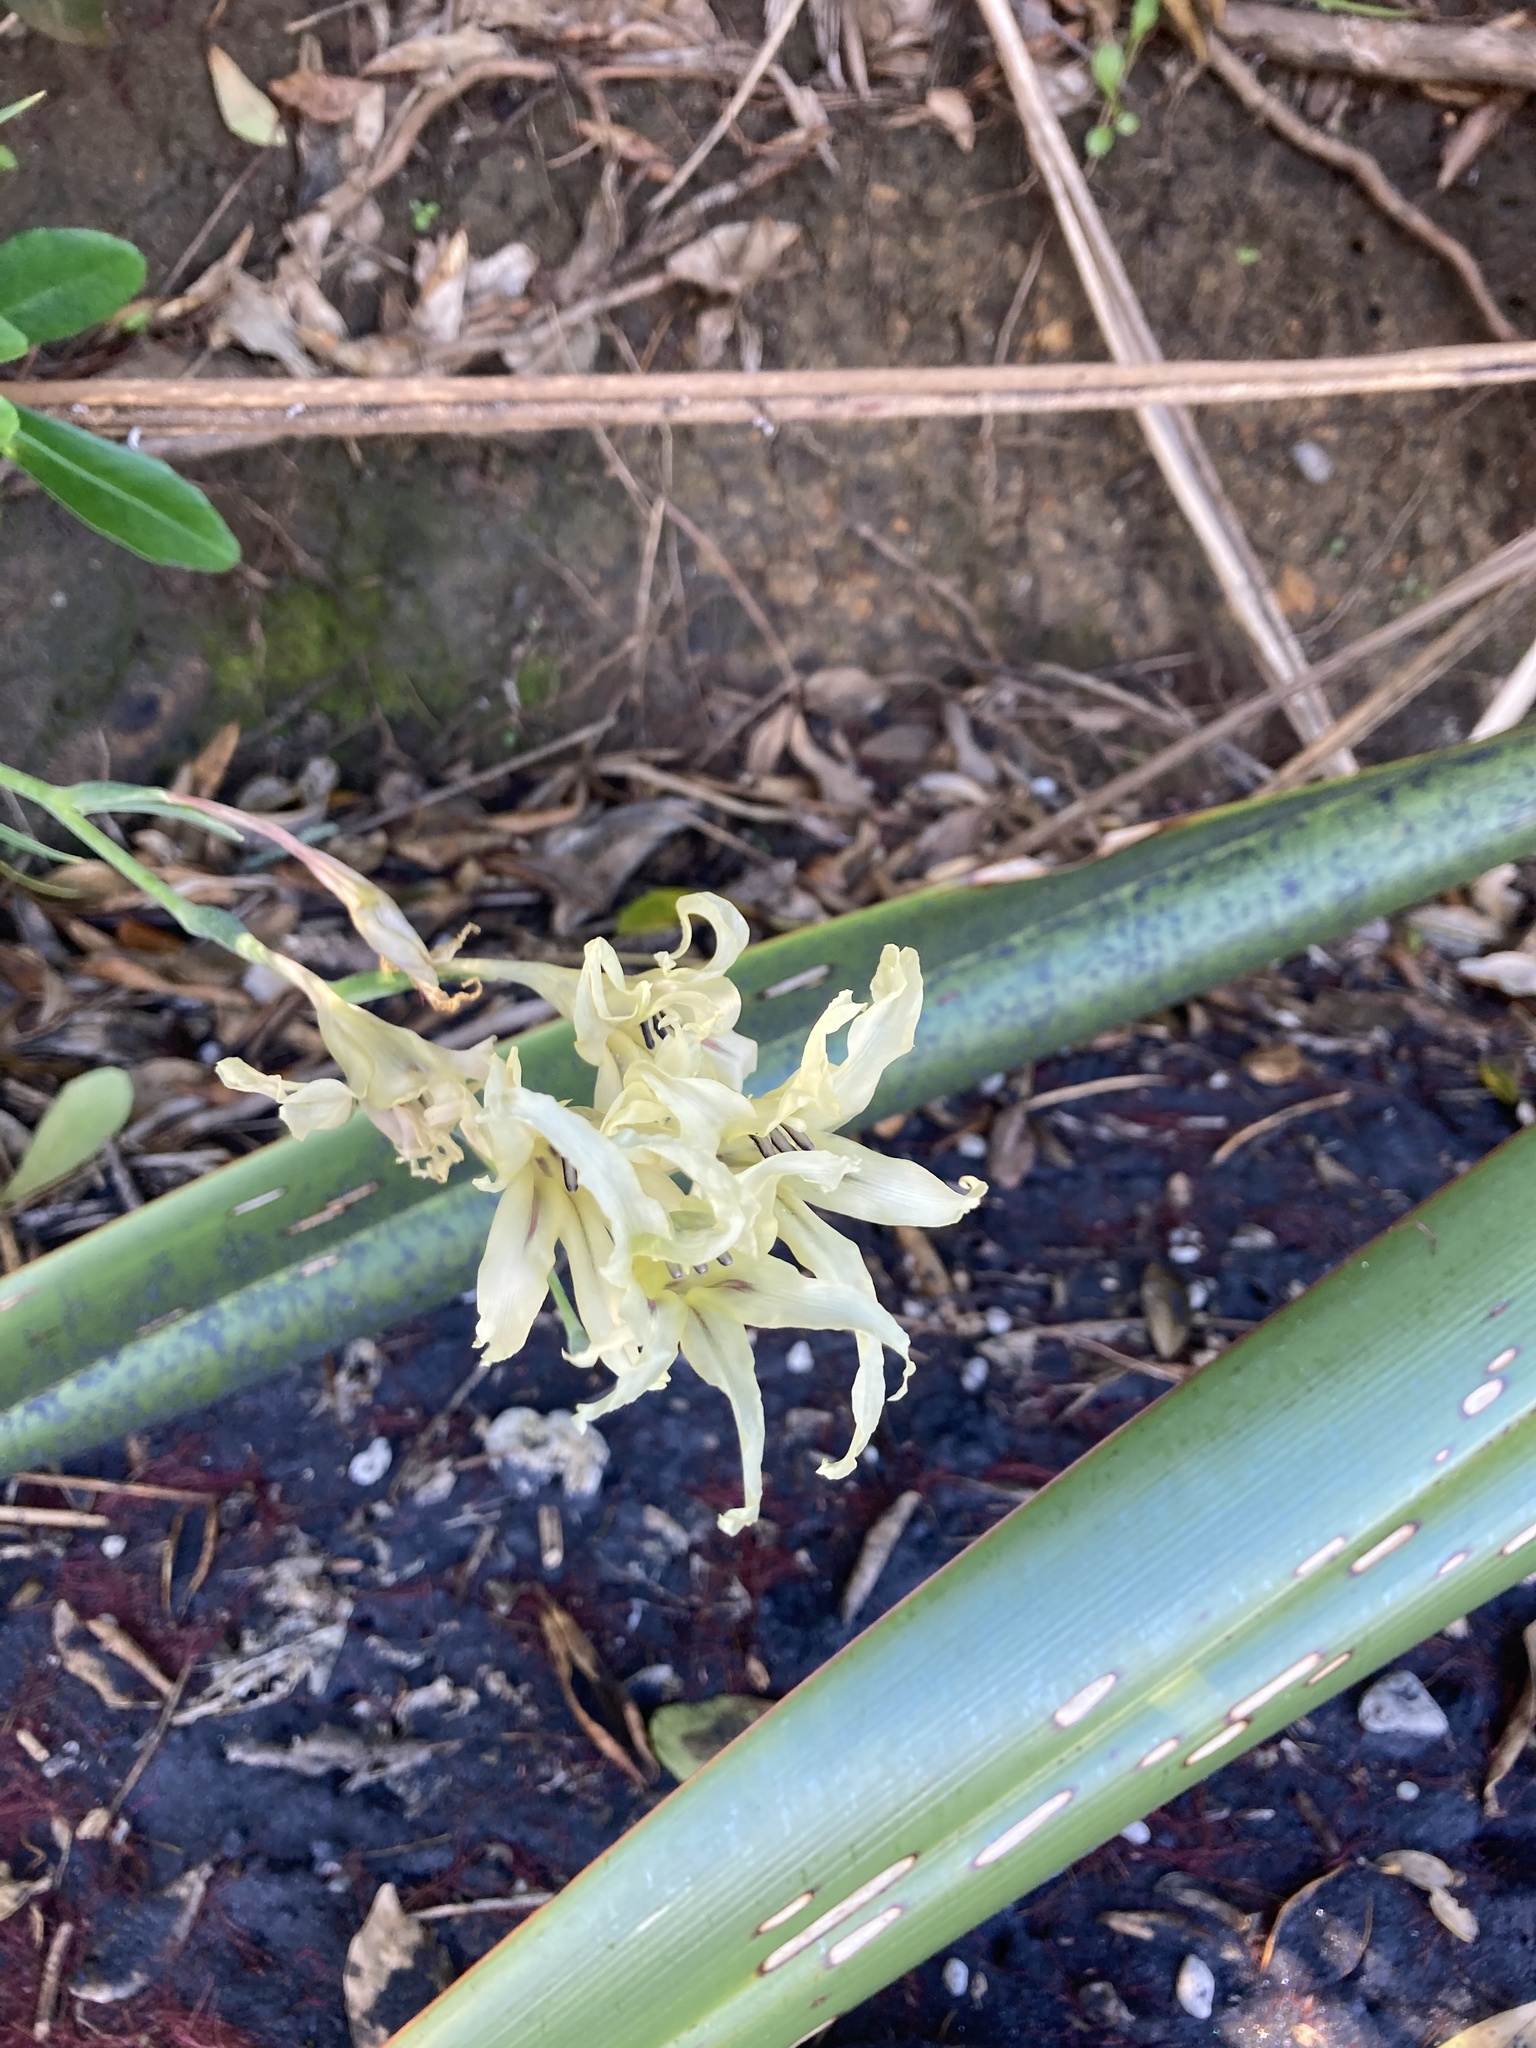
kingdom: Plantae
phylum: Tracheophyta
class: Liliopsida
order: Asparagales
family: Iridaceae
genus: Gladiolus
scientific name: Gladiolus undulatus
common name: Large painted-lady
